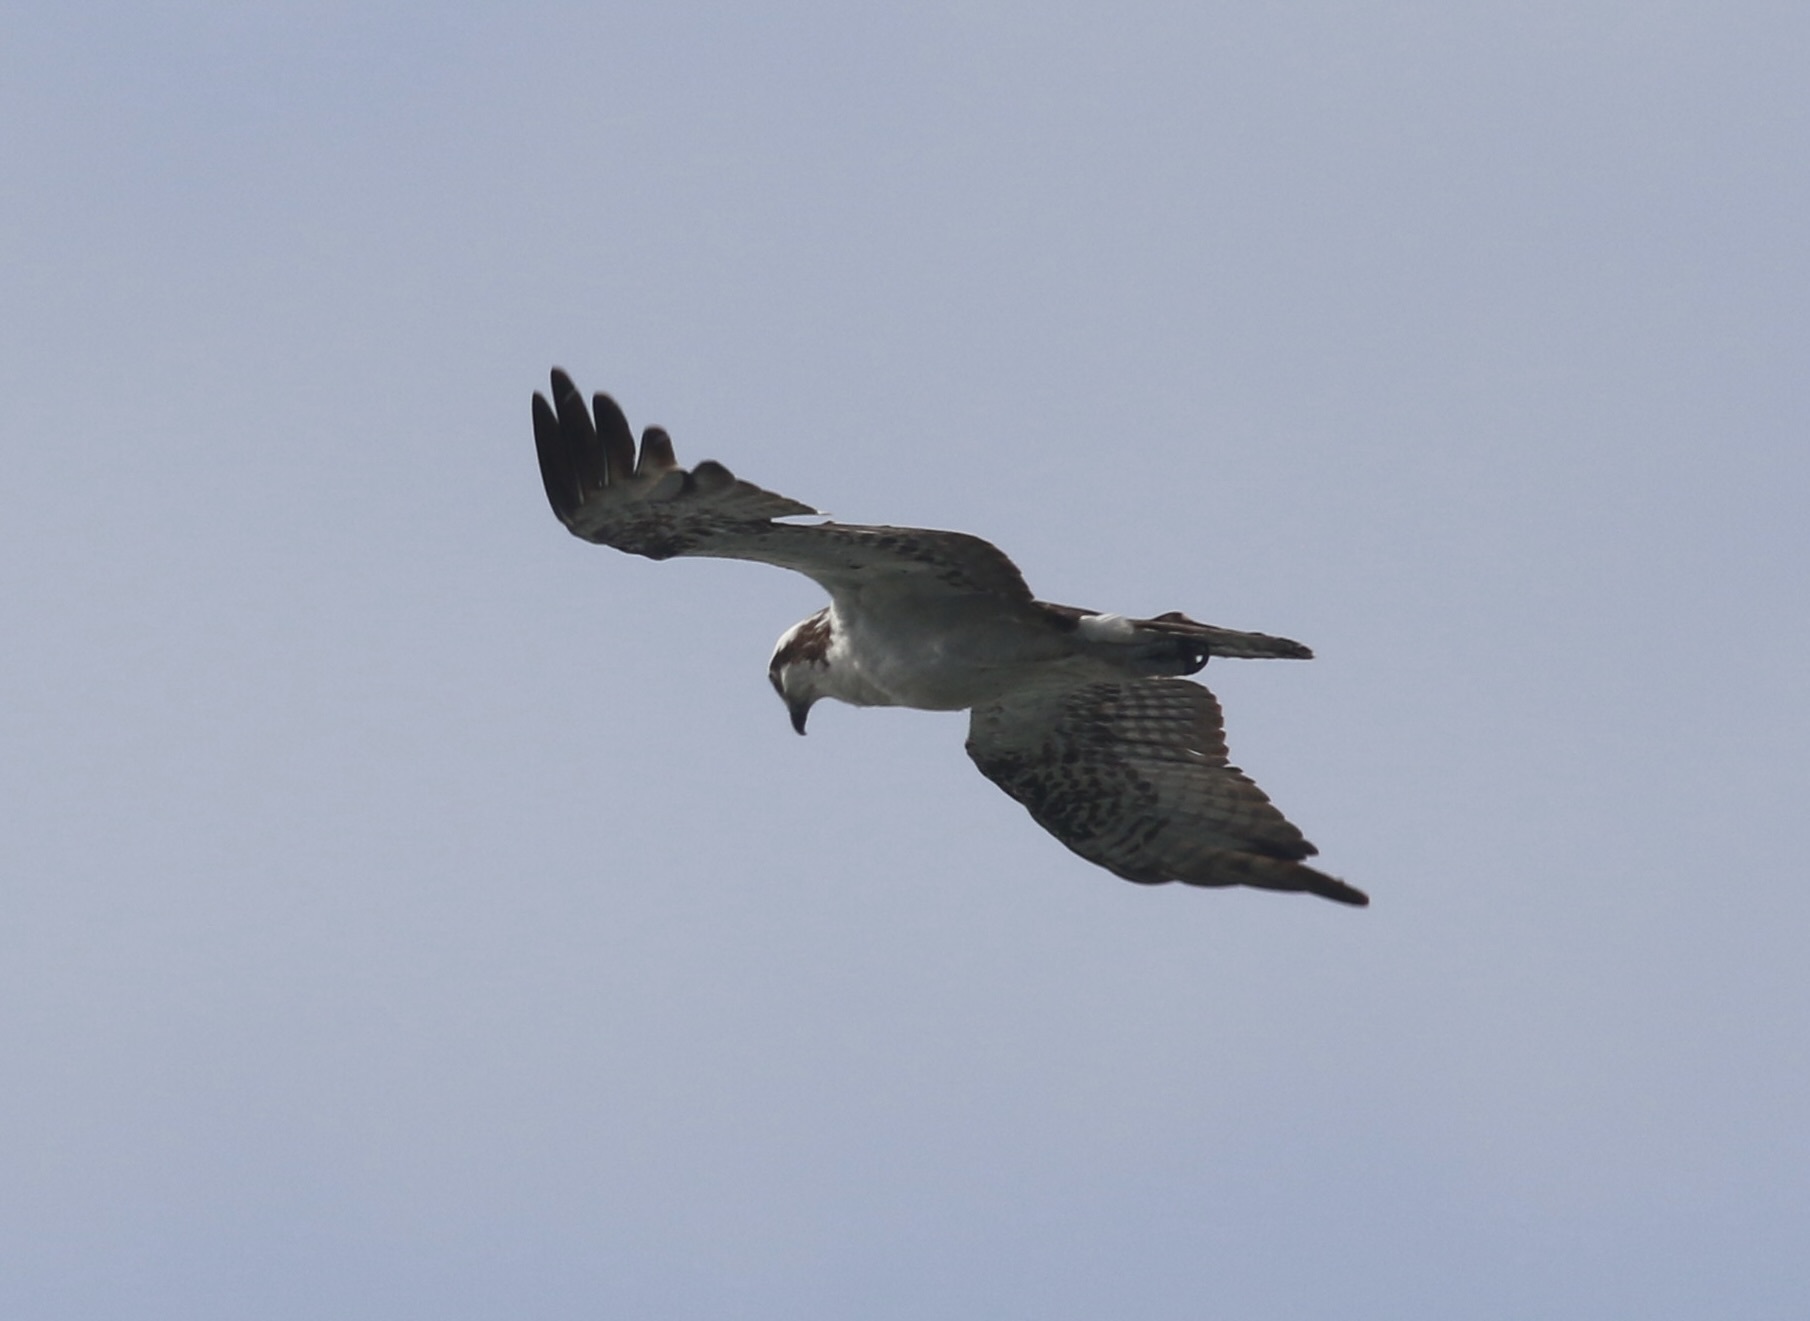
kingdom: Animalia
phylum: Chordata
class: Aves
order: Accipitriformes
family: Pandionidae
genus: Pandion
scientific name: Pandion haliaetus
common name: Osprey
